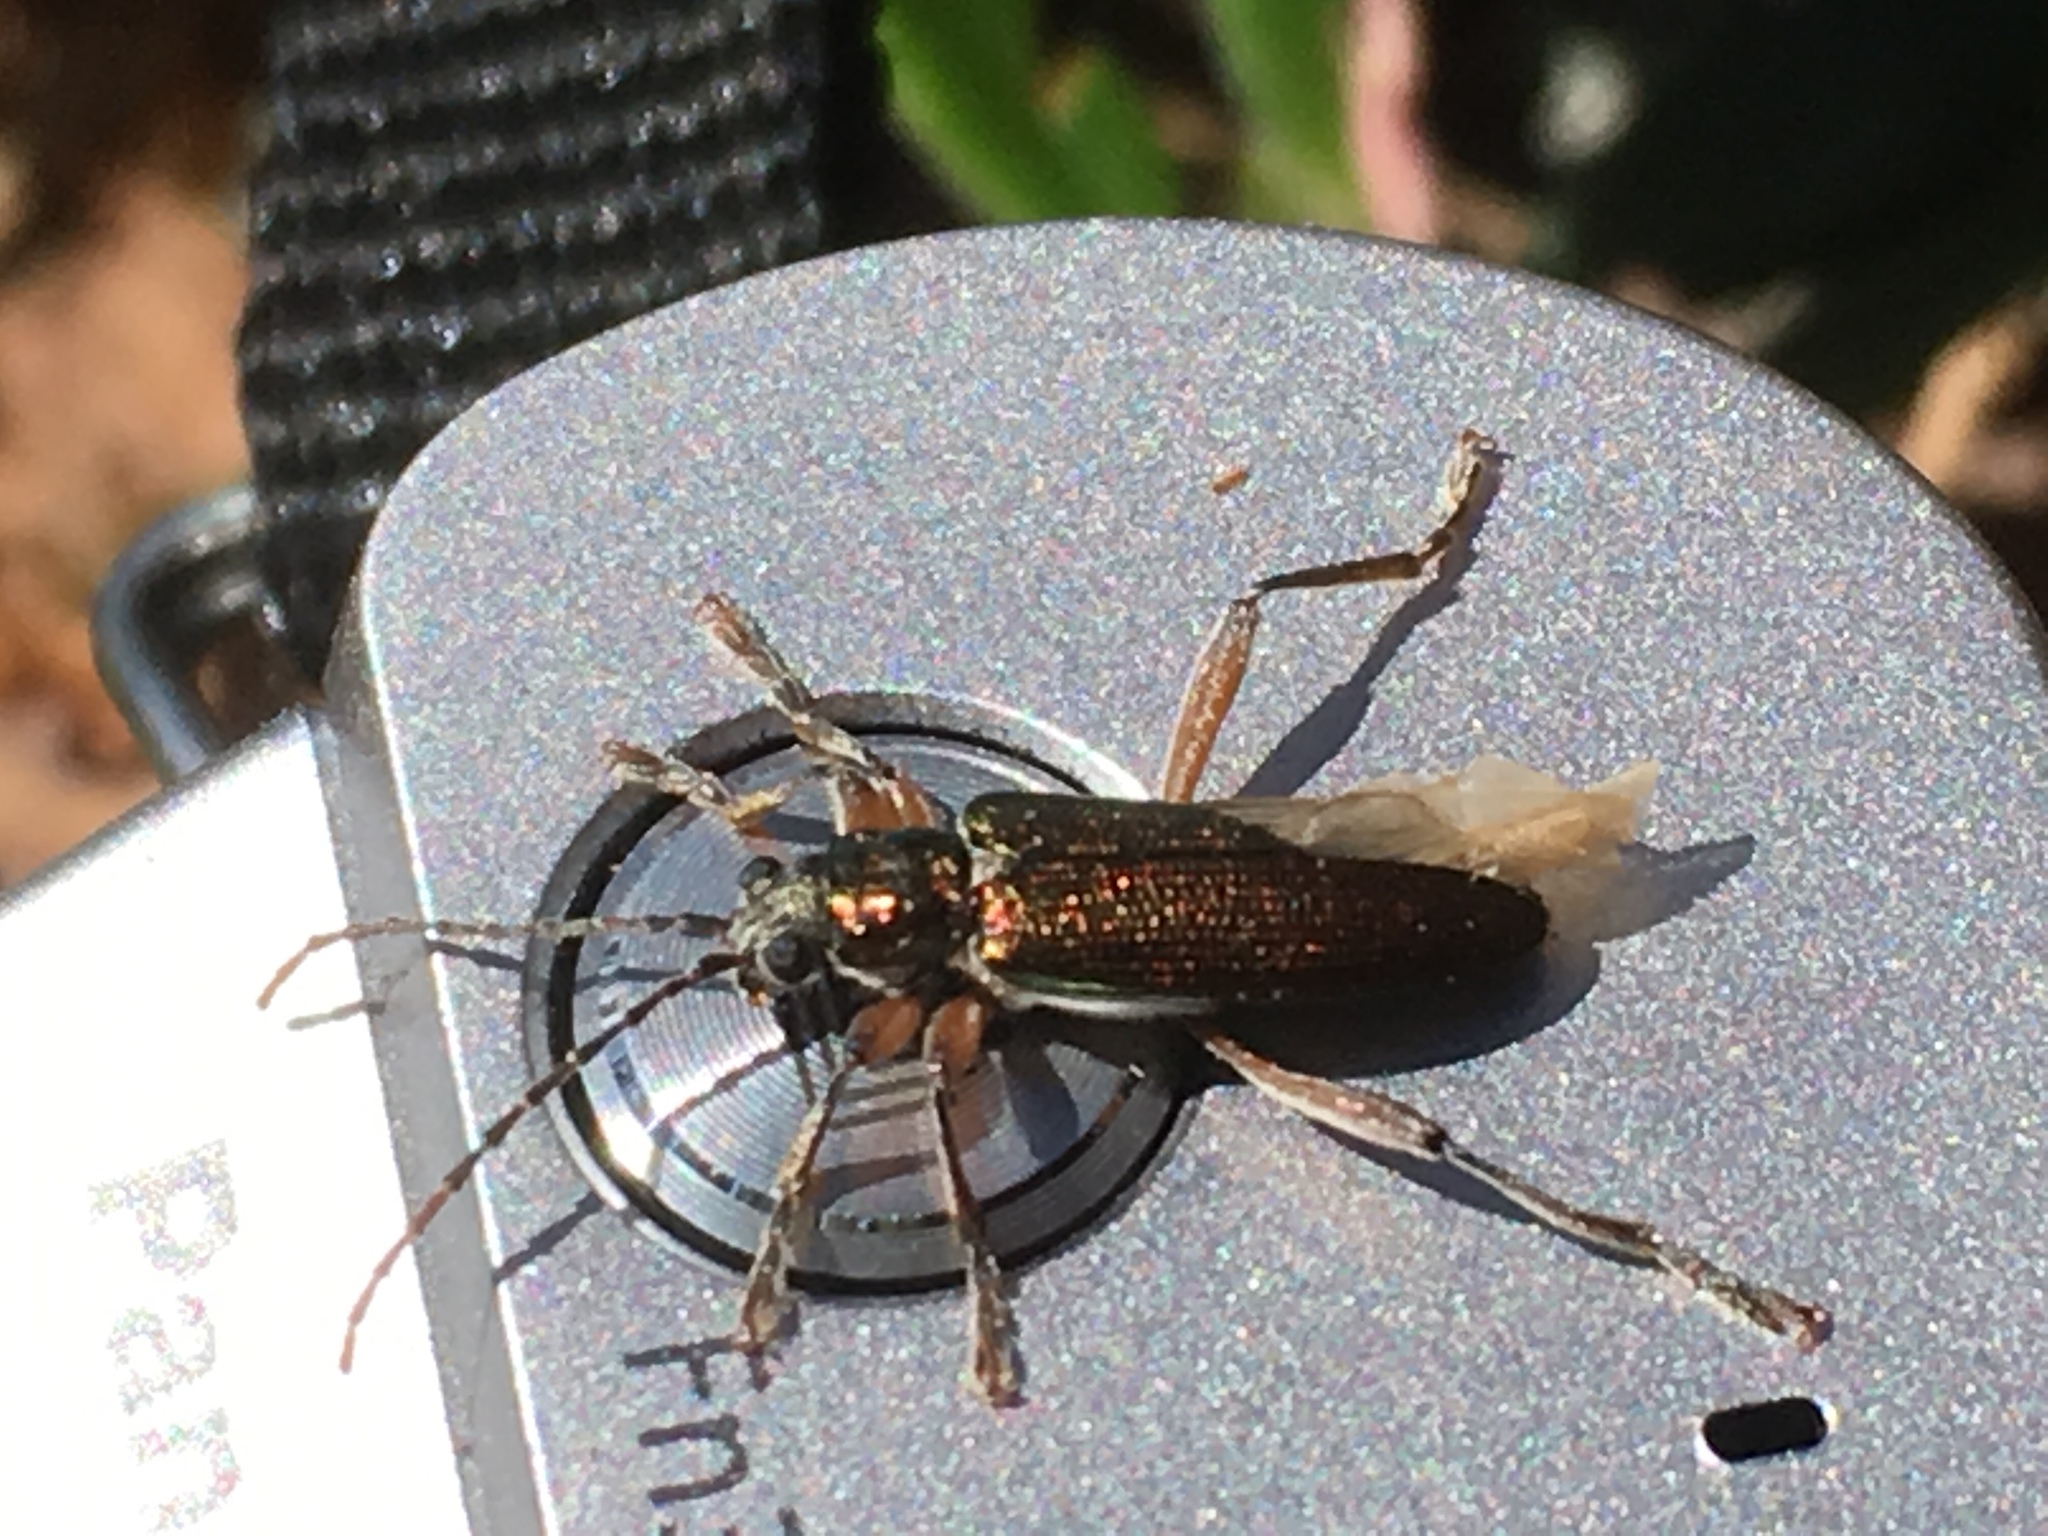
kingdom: Animalia
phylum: Arthropoda
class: Insecta
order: Coleoptera
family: Chrysomelidae
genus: Donacia
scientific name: Donacia clavipes
